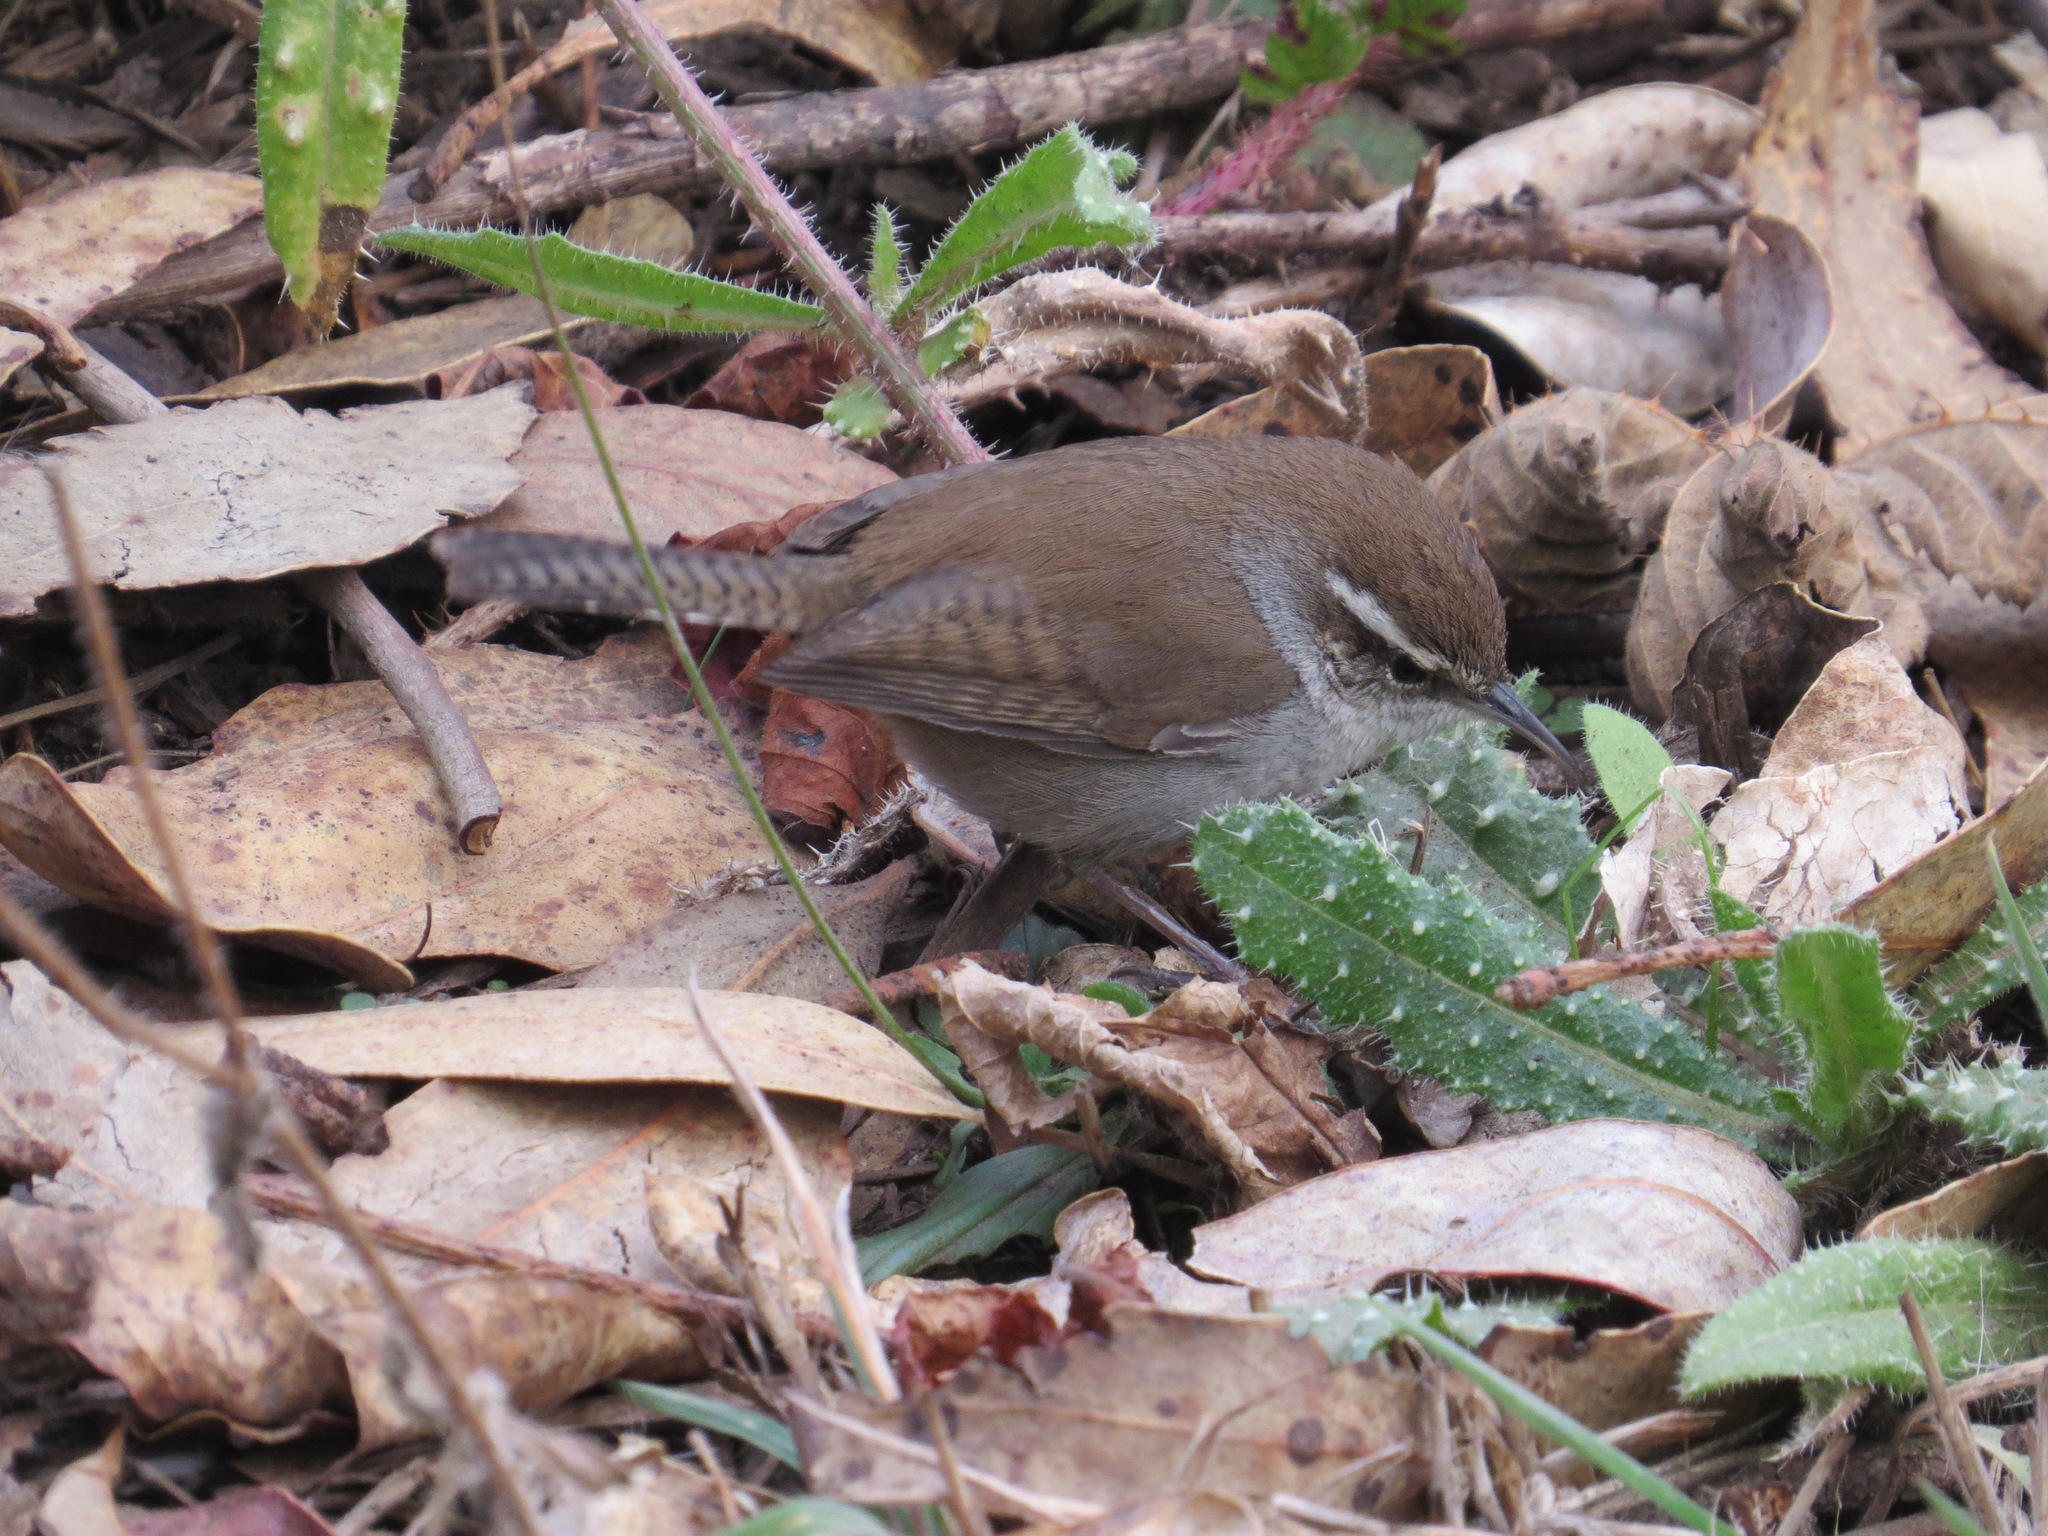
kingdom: Animalia
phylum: Chordata
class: Aves
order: Passeriformes
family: Troglodytidae
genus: Thryomanes
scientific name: Thryomanes bewickii
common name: Bewick's wren
